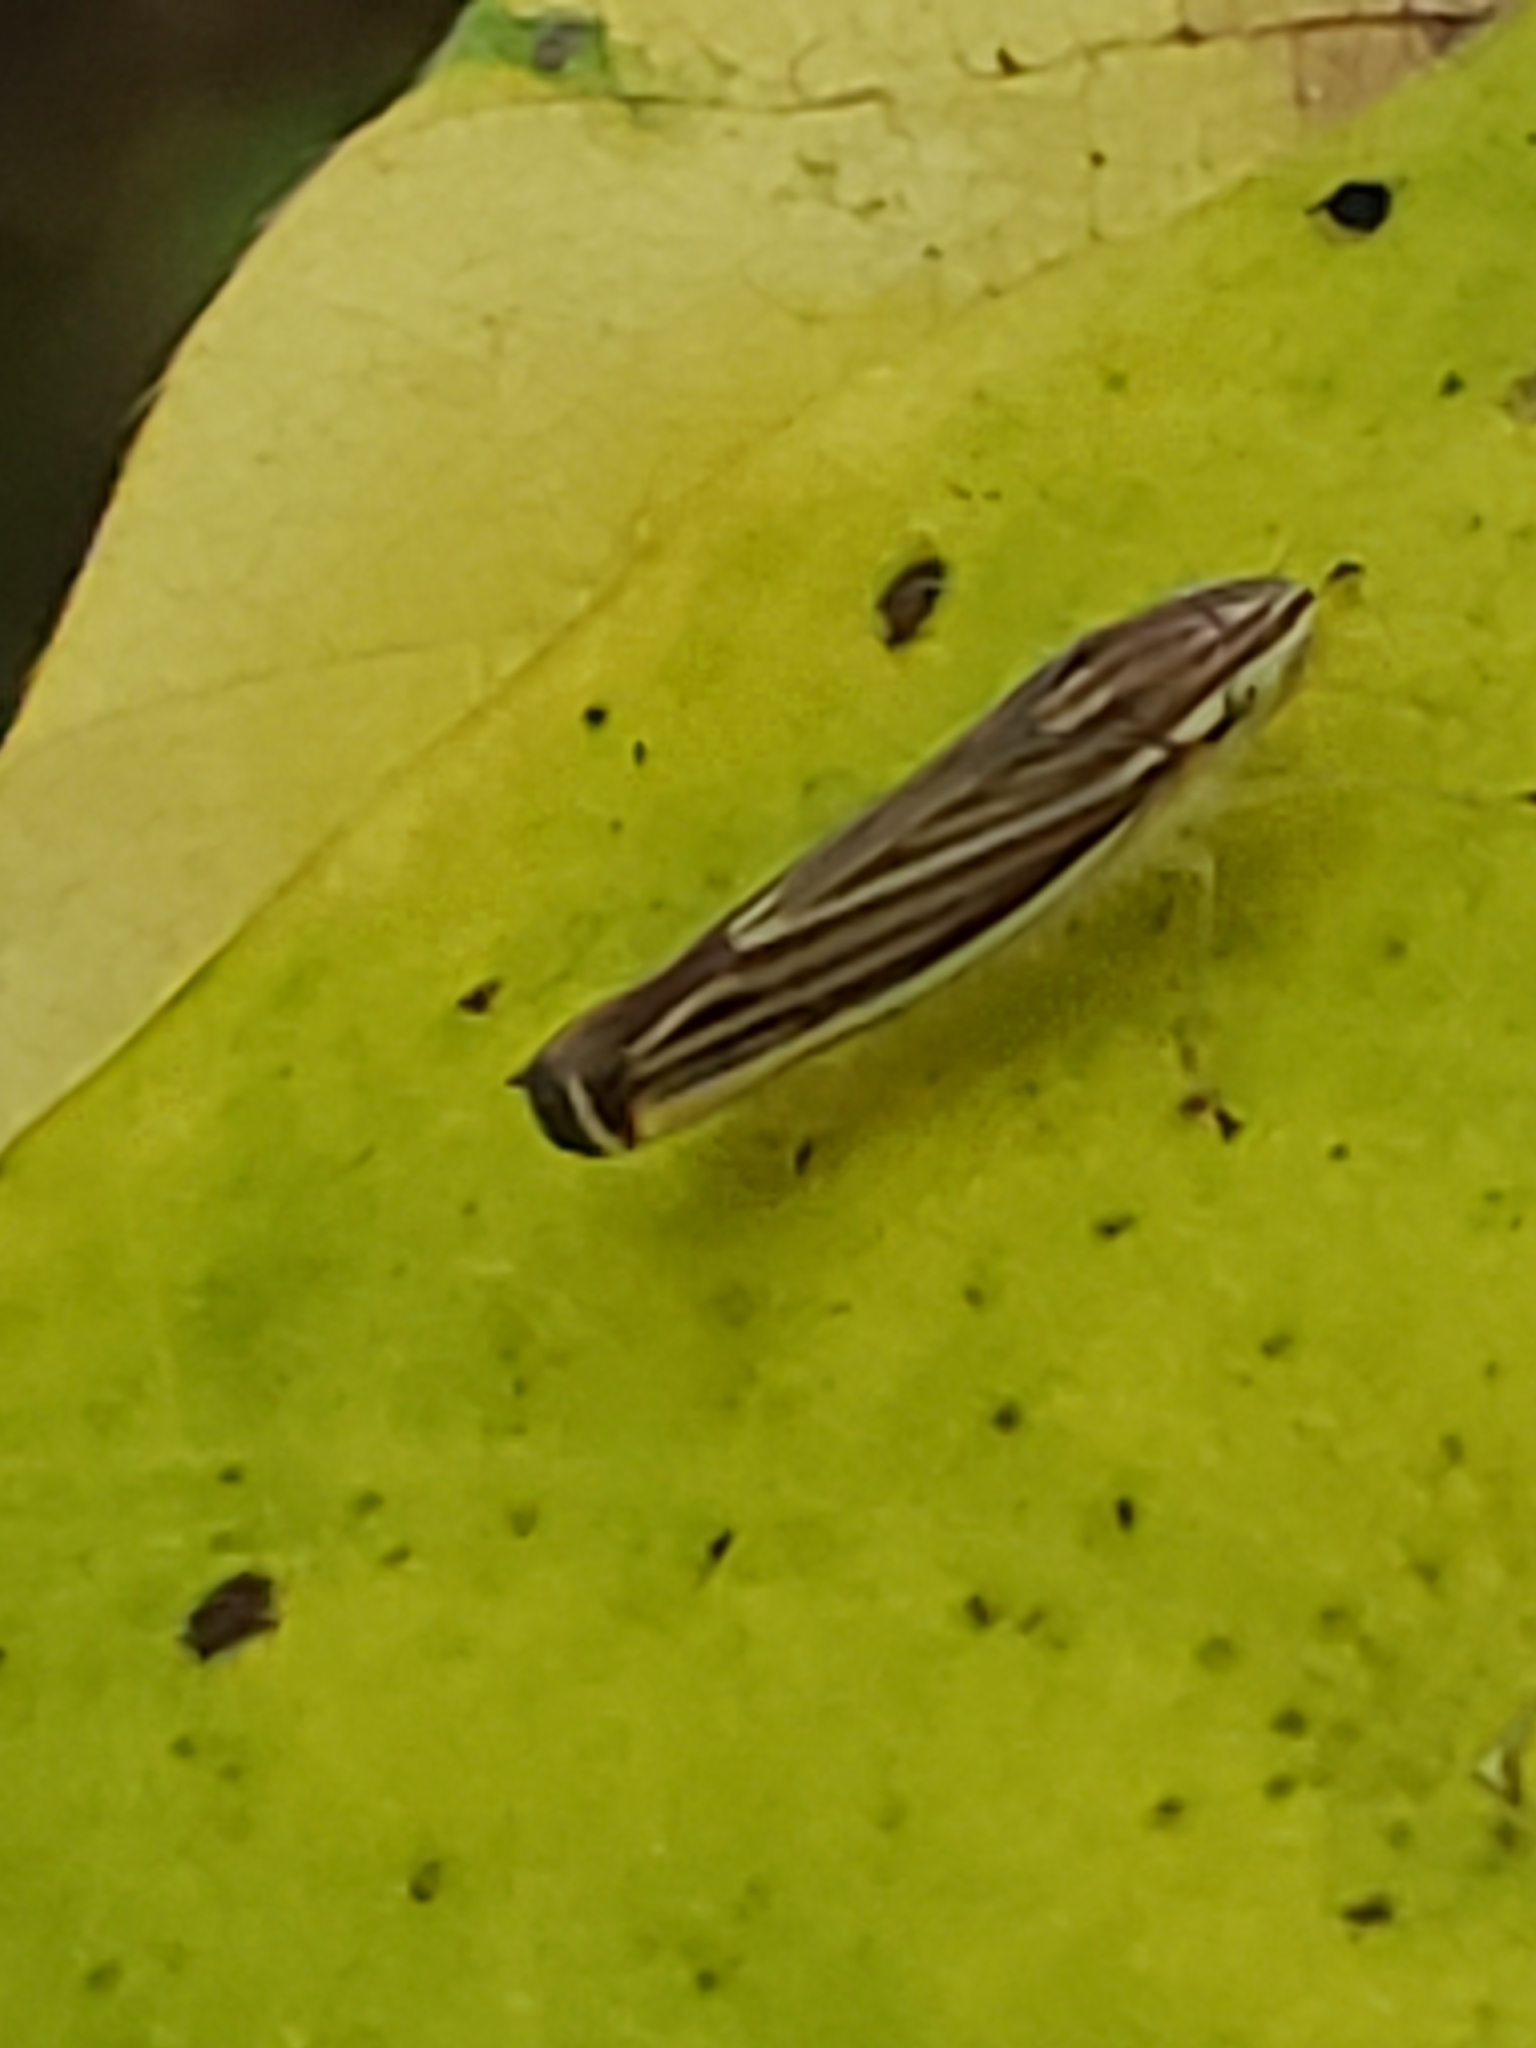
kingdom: Animalia
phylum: Arthropoda
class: Insecta
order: Hemiptera
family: Cicadellidae
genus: Sibovia
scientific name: Sibovia occatoria
